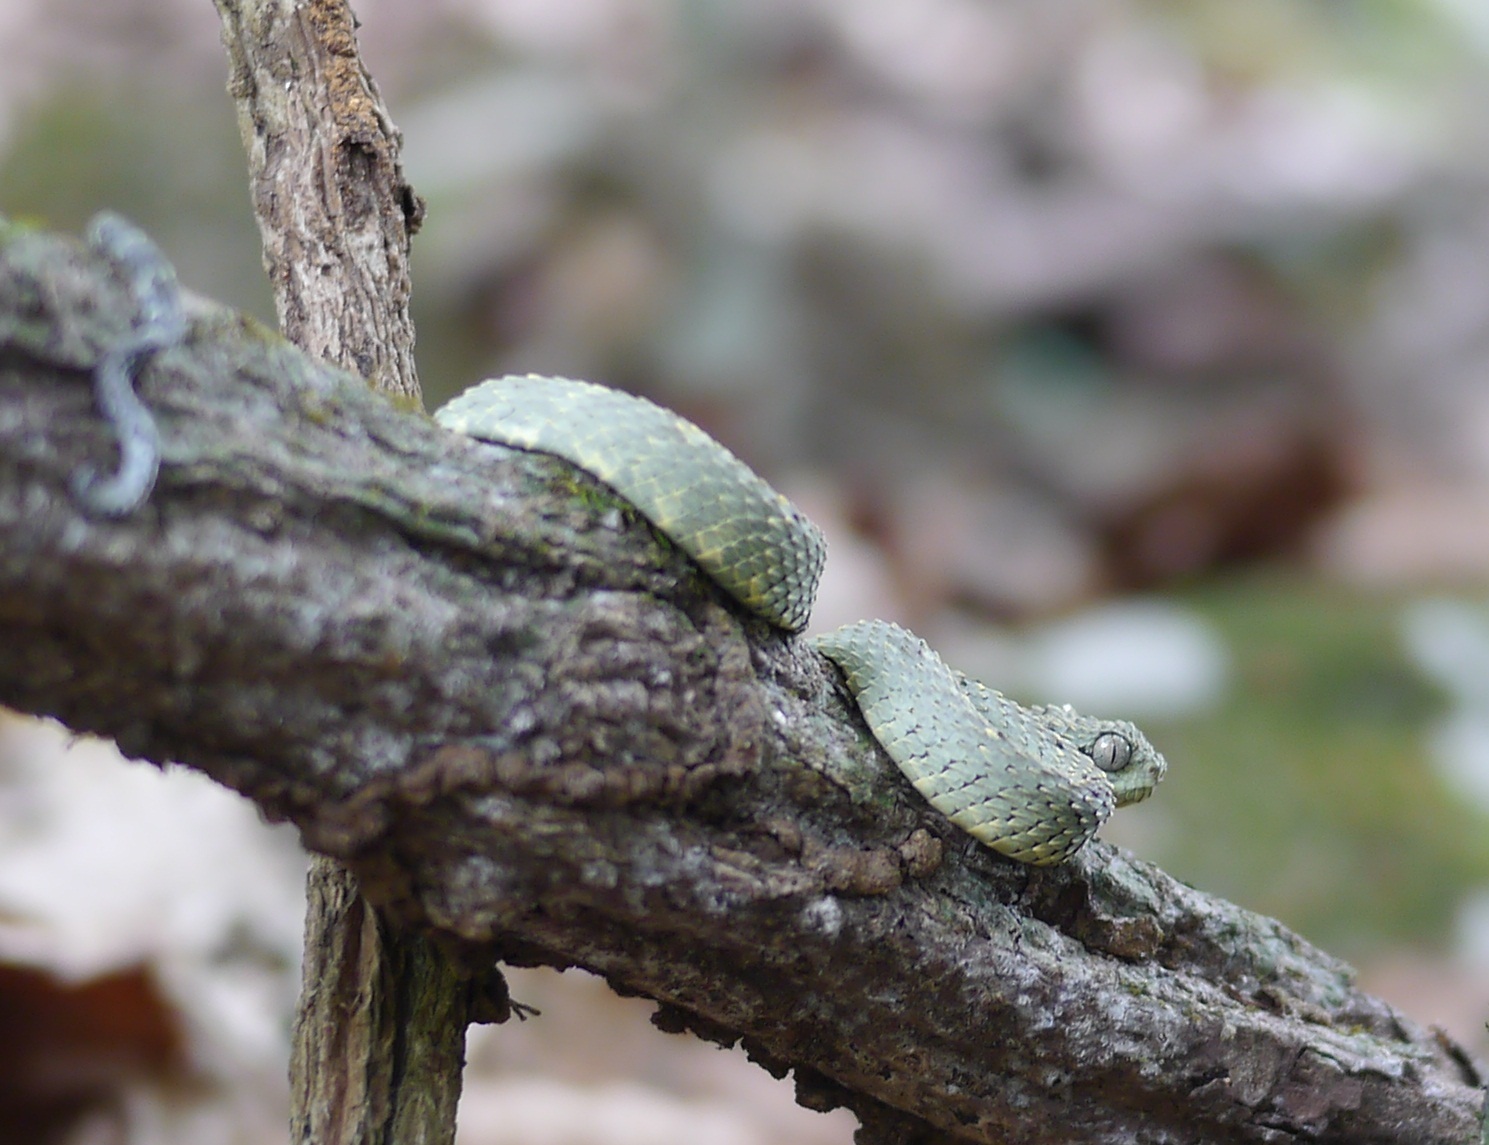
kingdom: Animalia
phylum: Chordata
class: Squamata
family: Viperidae
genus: Atheris
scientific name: Atheris squamigera
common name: African bush viper
